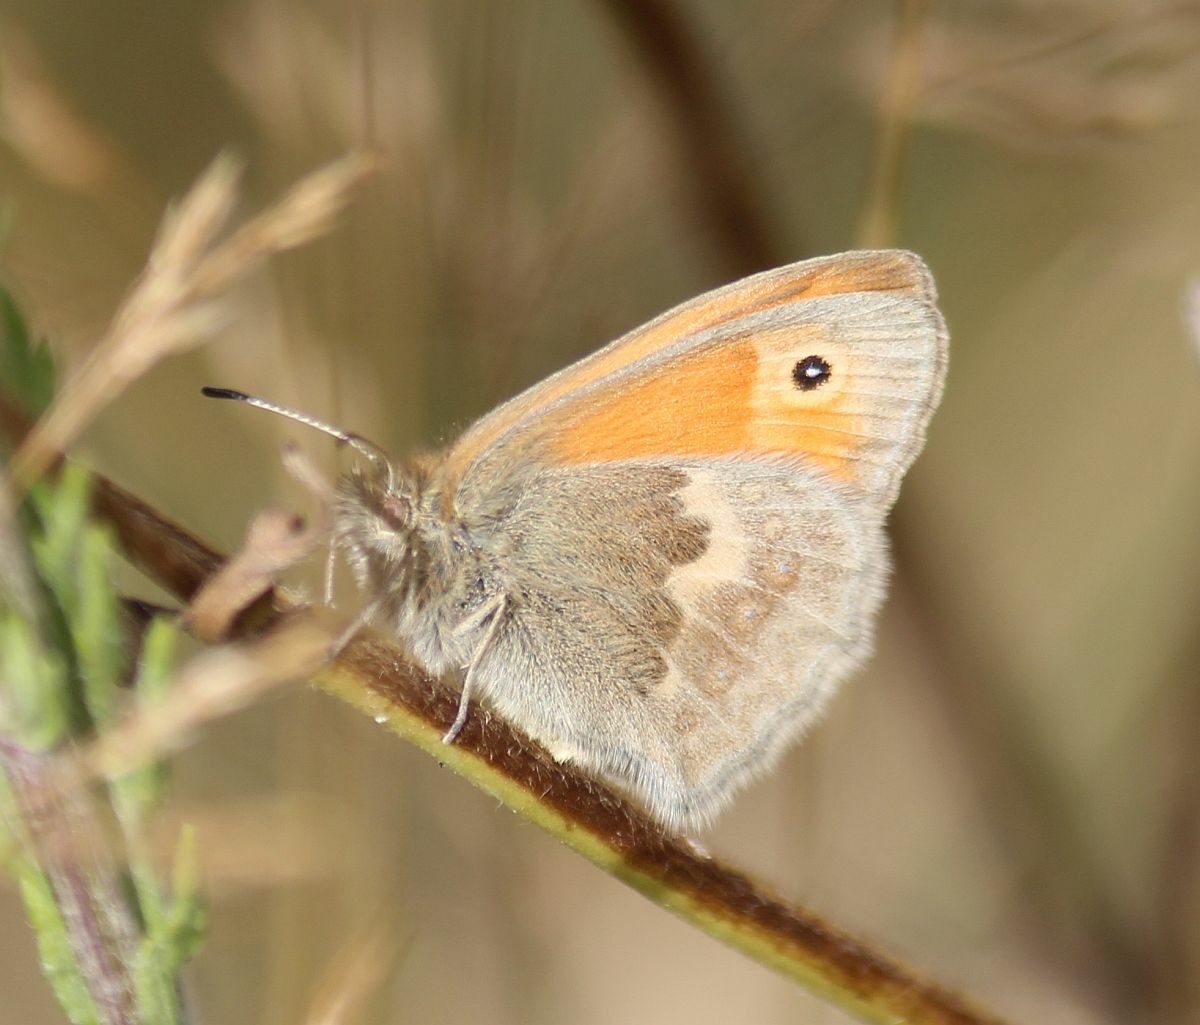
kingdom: Animalia
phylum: Arthropoda
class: Insecta
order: Lepidoptera
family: Nymphalidae
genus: Coenonympha
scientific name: Coenonympha pamphilus
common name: Small heath
